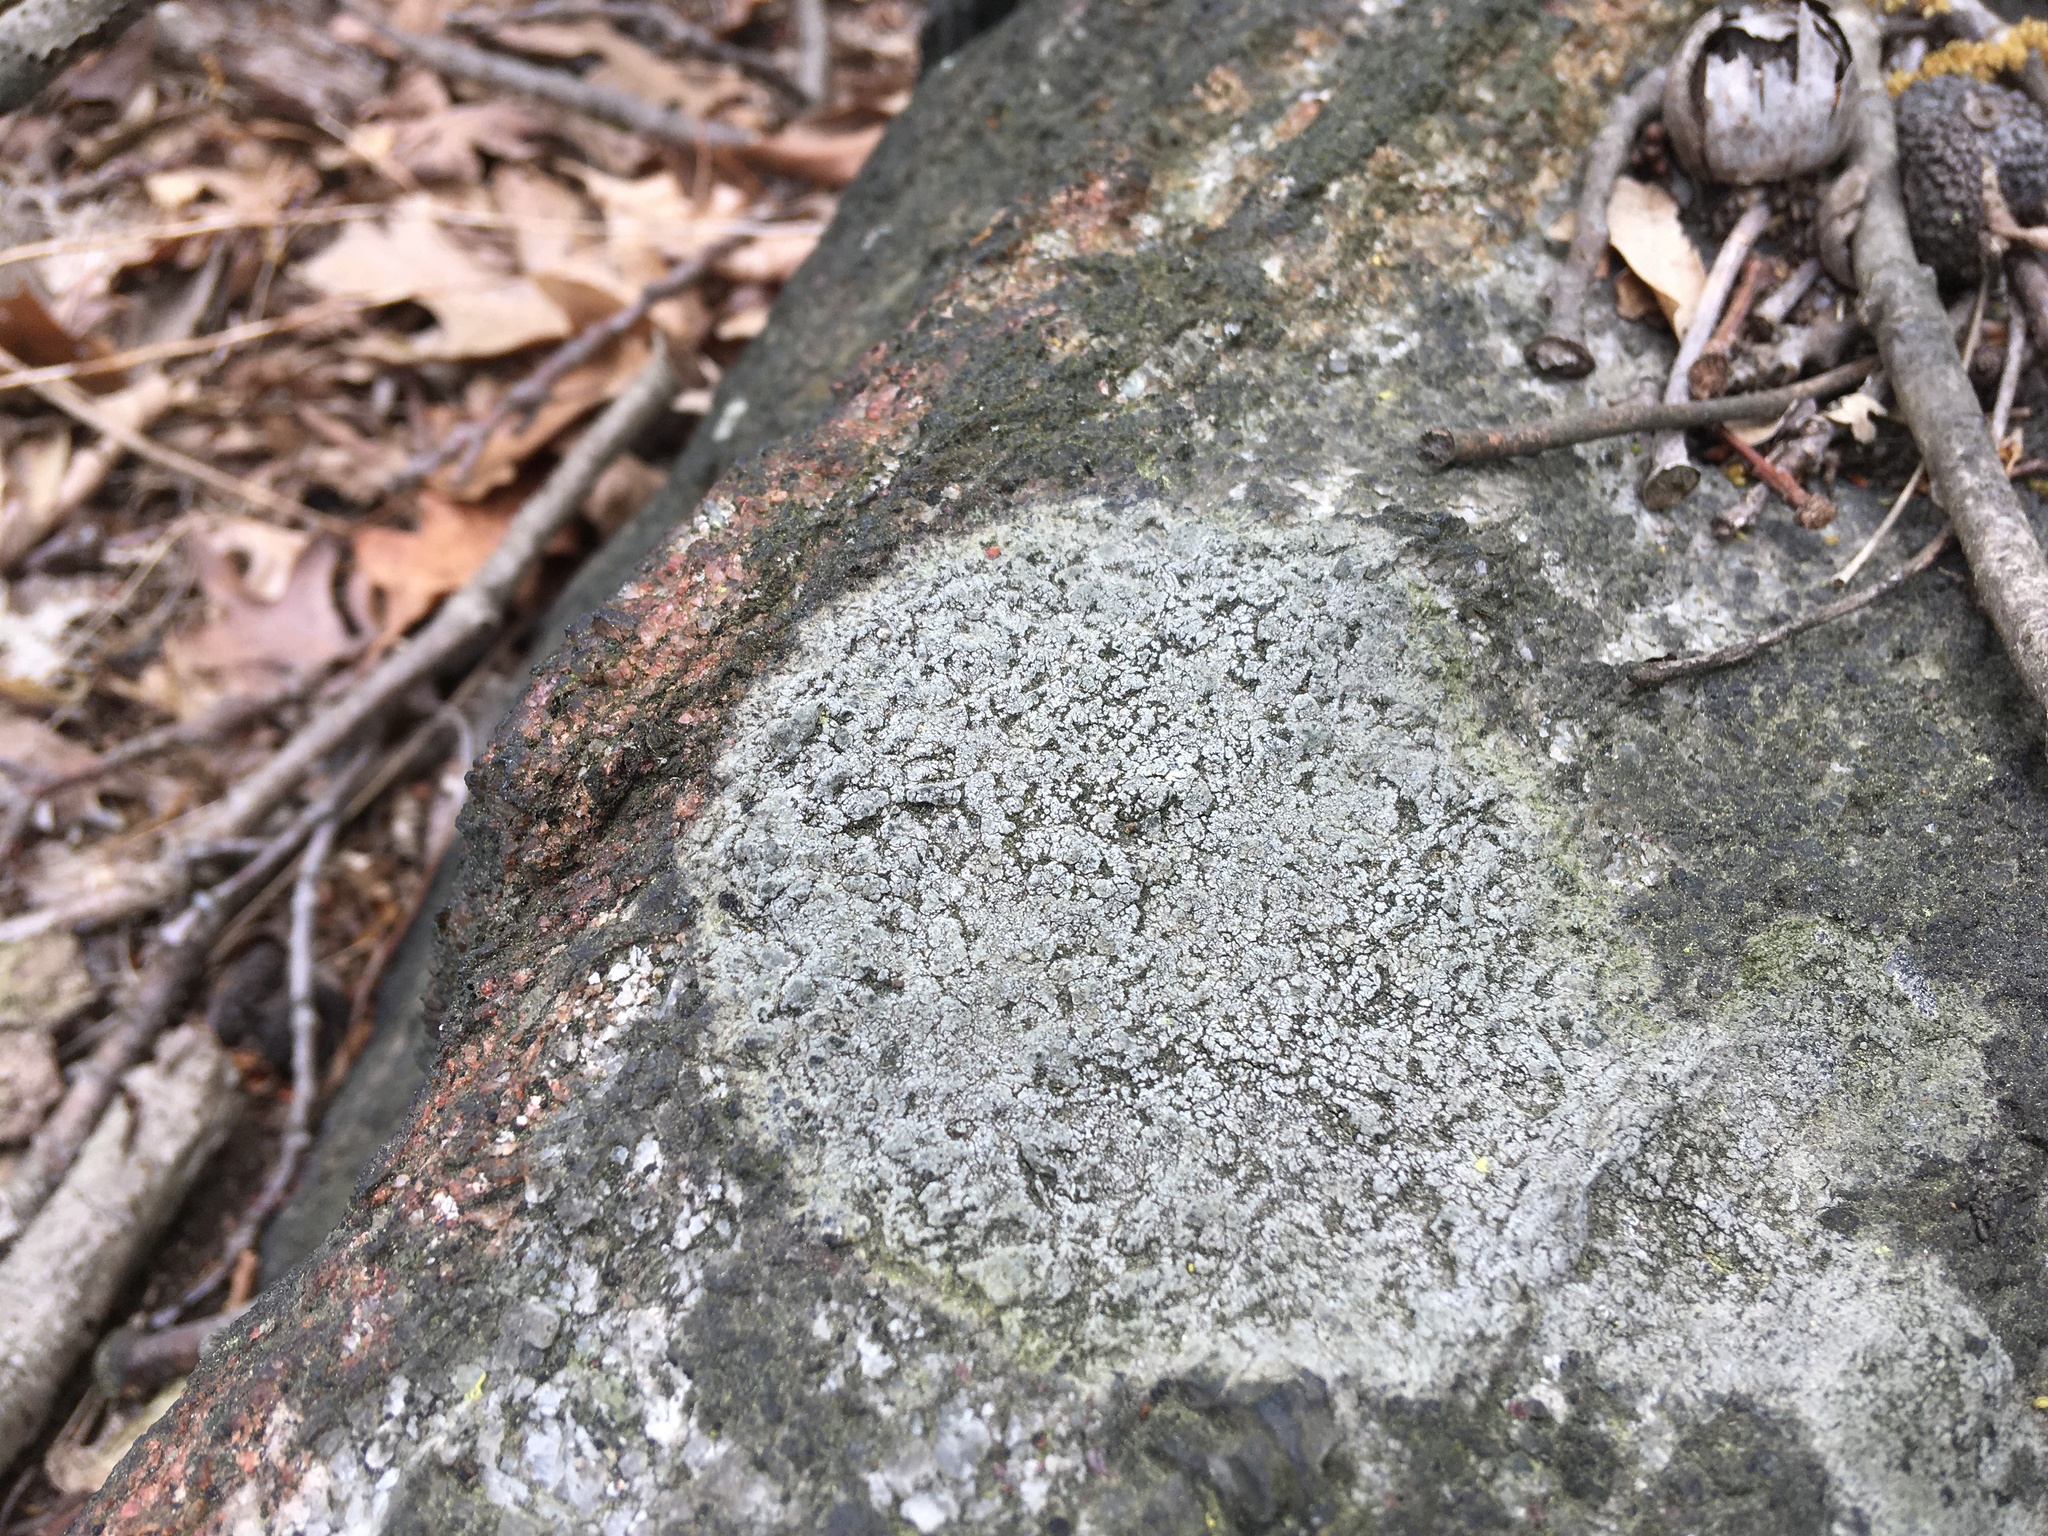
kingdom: Fungi
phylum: Ascomycota
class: Lecanoromycetes
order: Lecideales
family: Lecideaceae
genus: Porpidia
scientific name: Porpidia albocaerulescens
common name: Smokey-eyed boulder lichen
